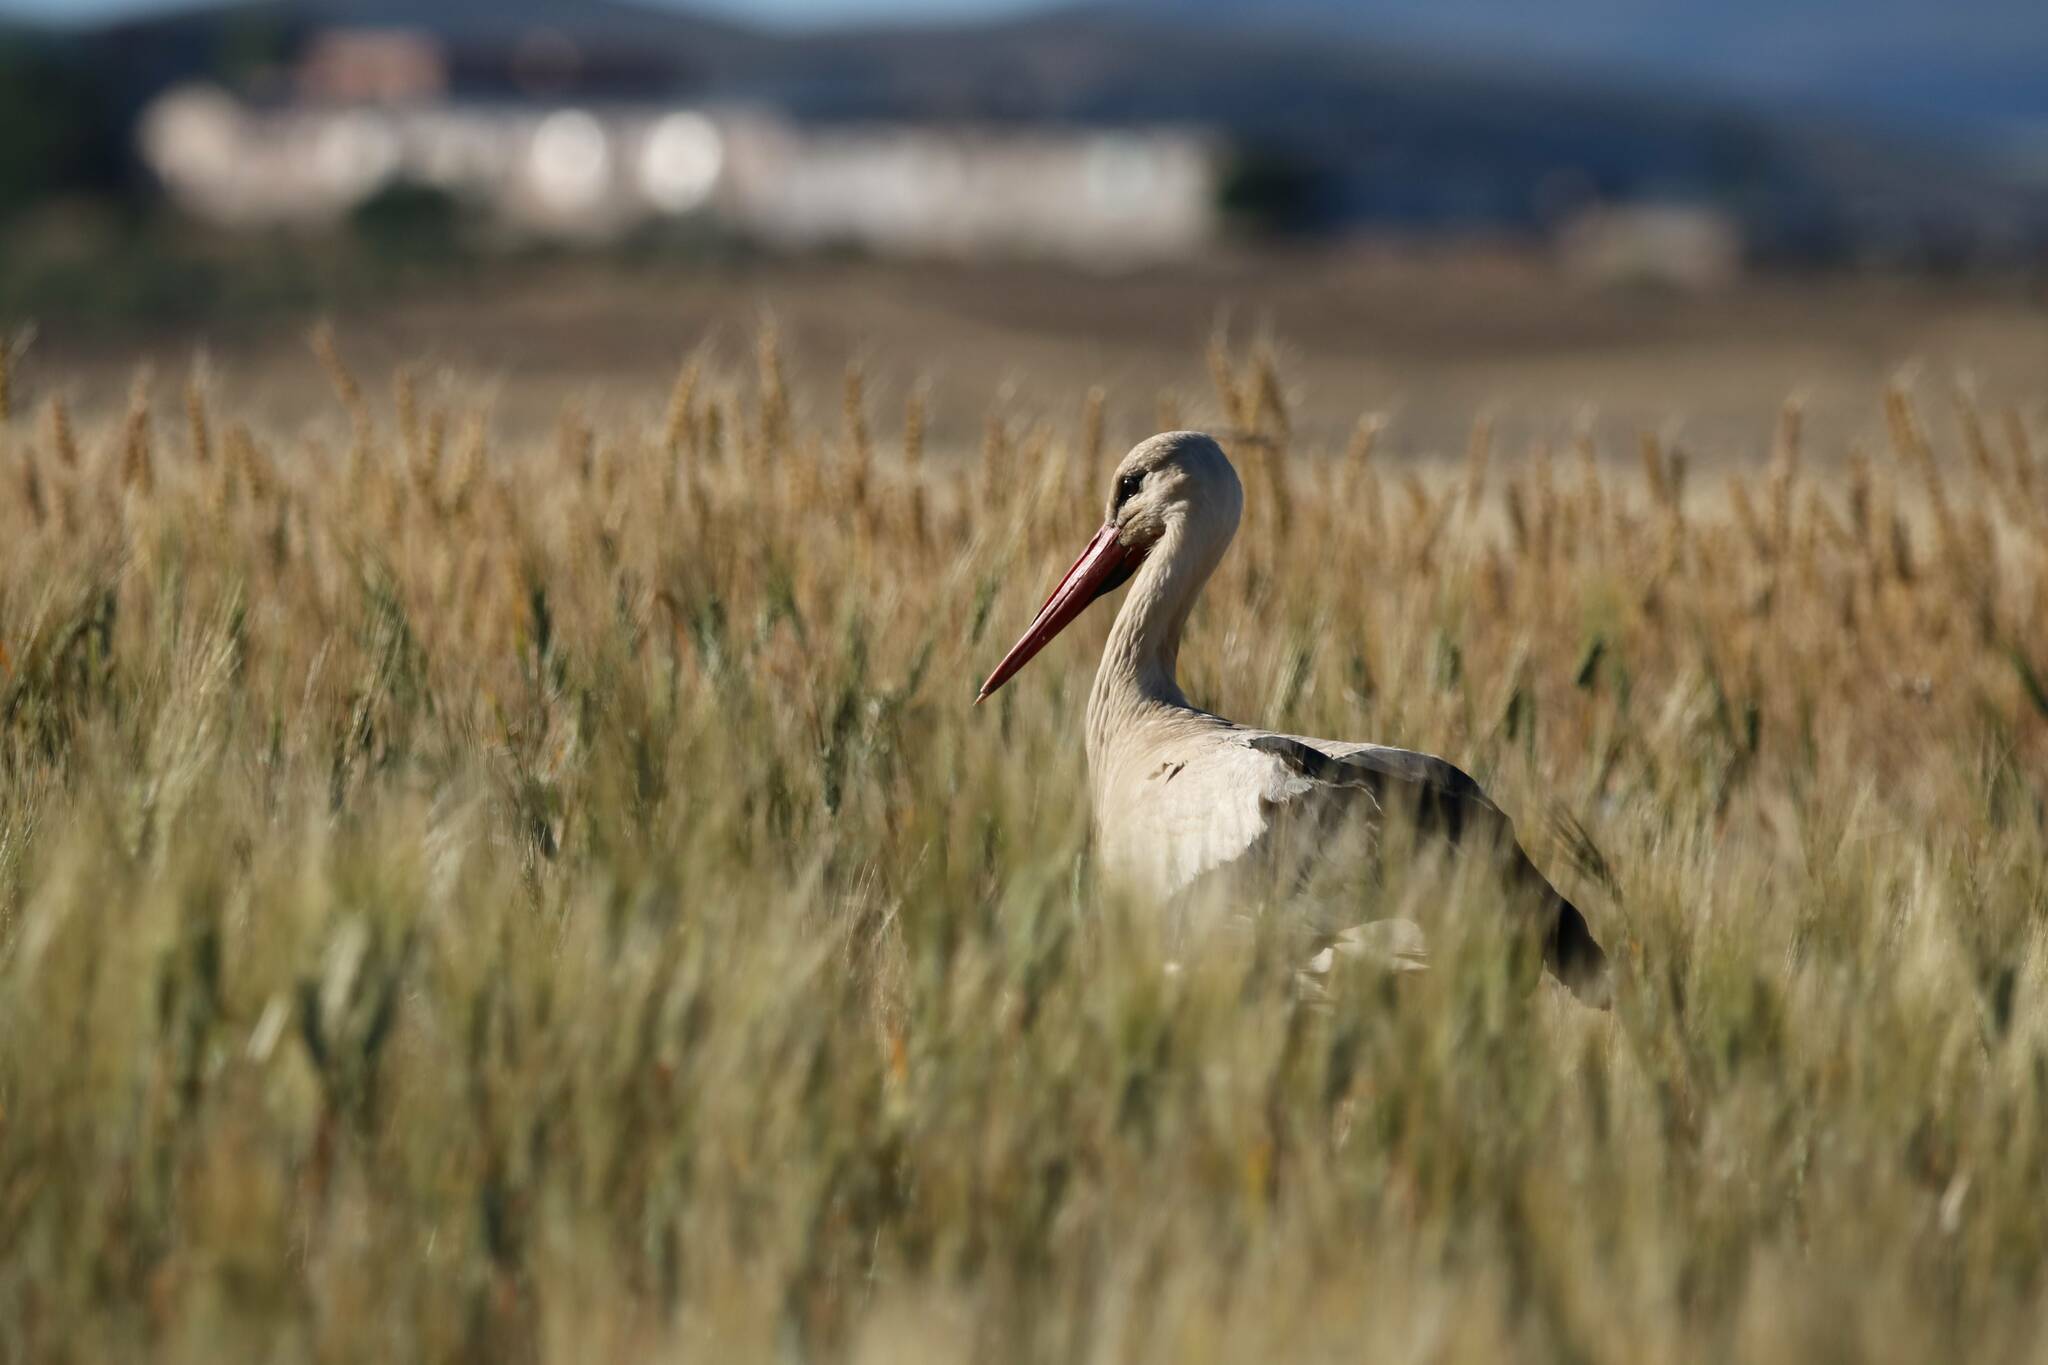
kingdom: Animalia
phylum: Chordata
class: Aves
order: Ciconiiformes
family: Ciconiidae
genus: Ciconia
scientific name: Ciconia ciconia
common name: White stork
